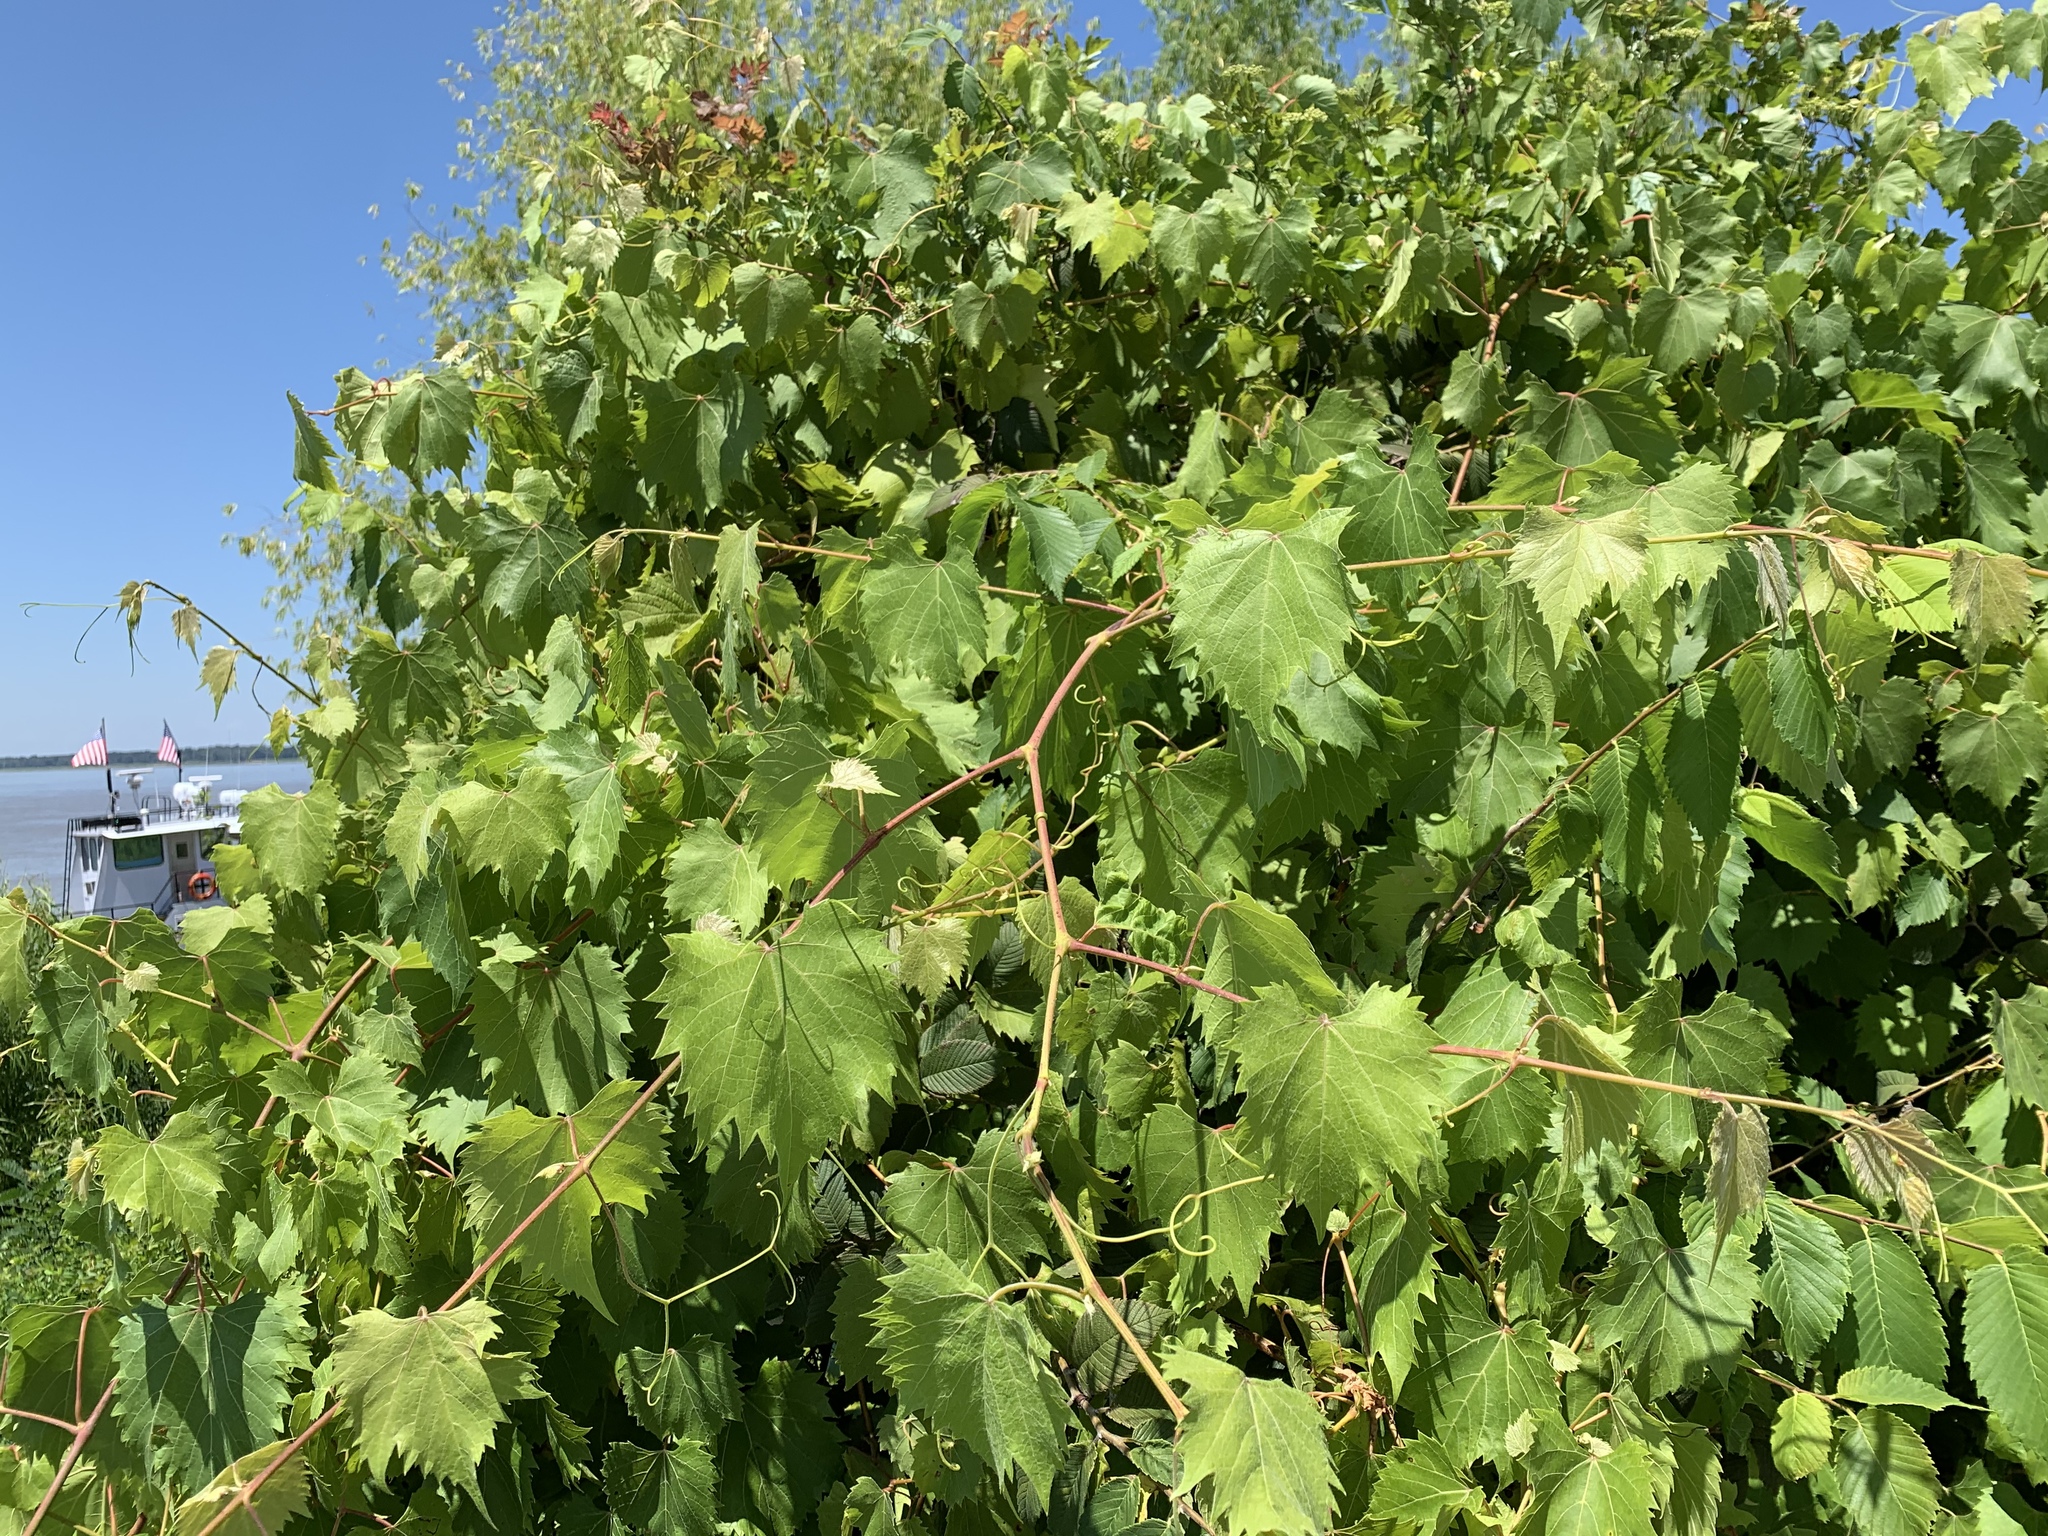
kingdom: Plantae
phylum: Tracheophyta
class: Magnoliopsida
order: Vitales
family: Vitaceae
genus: Vitis
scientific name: Vitis riparia
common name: Frost grape
